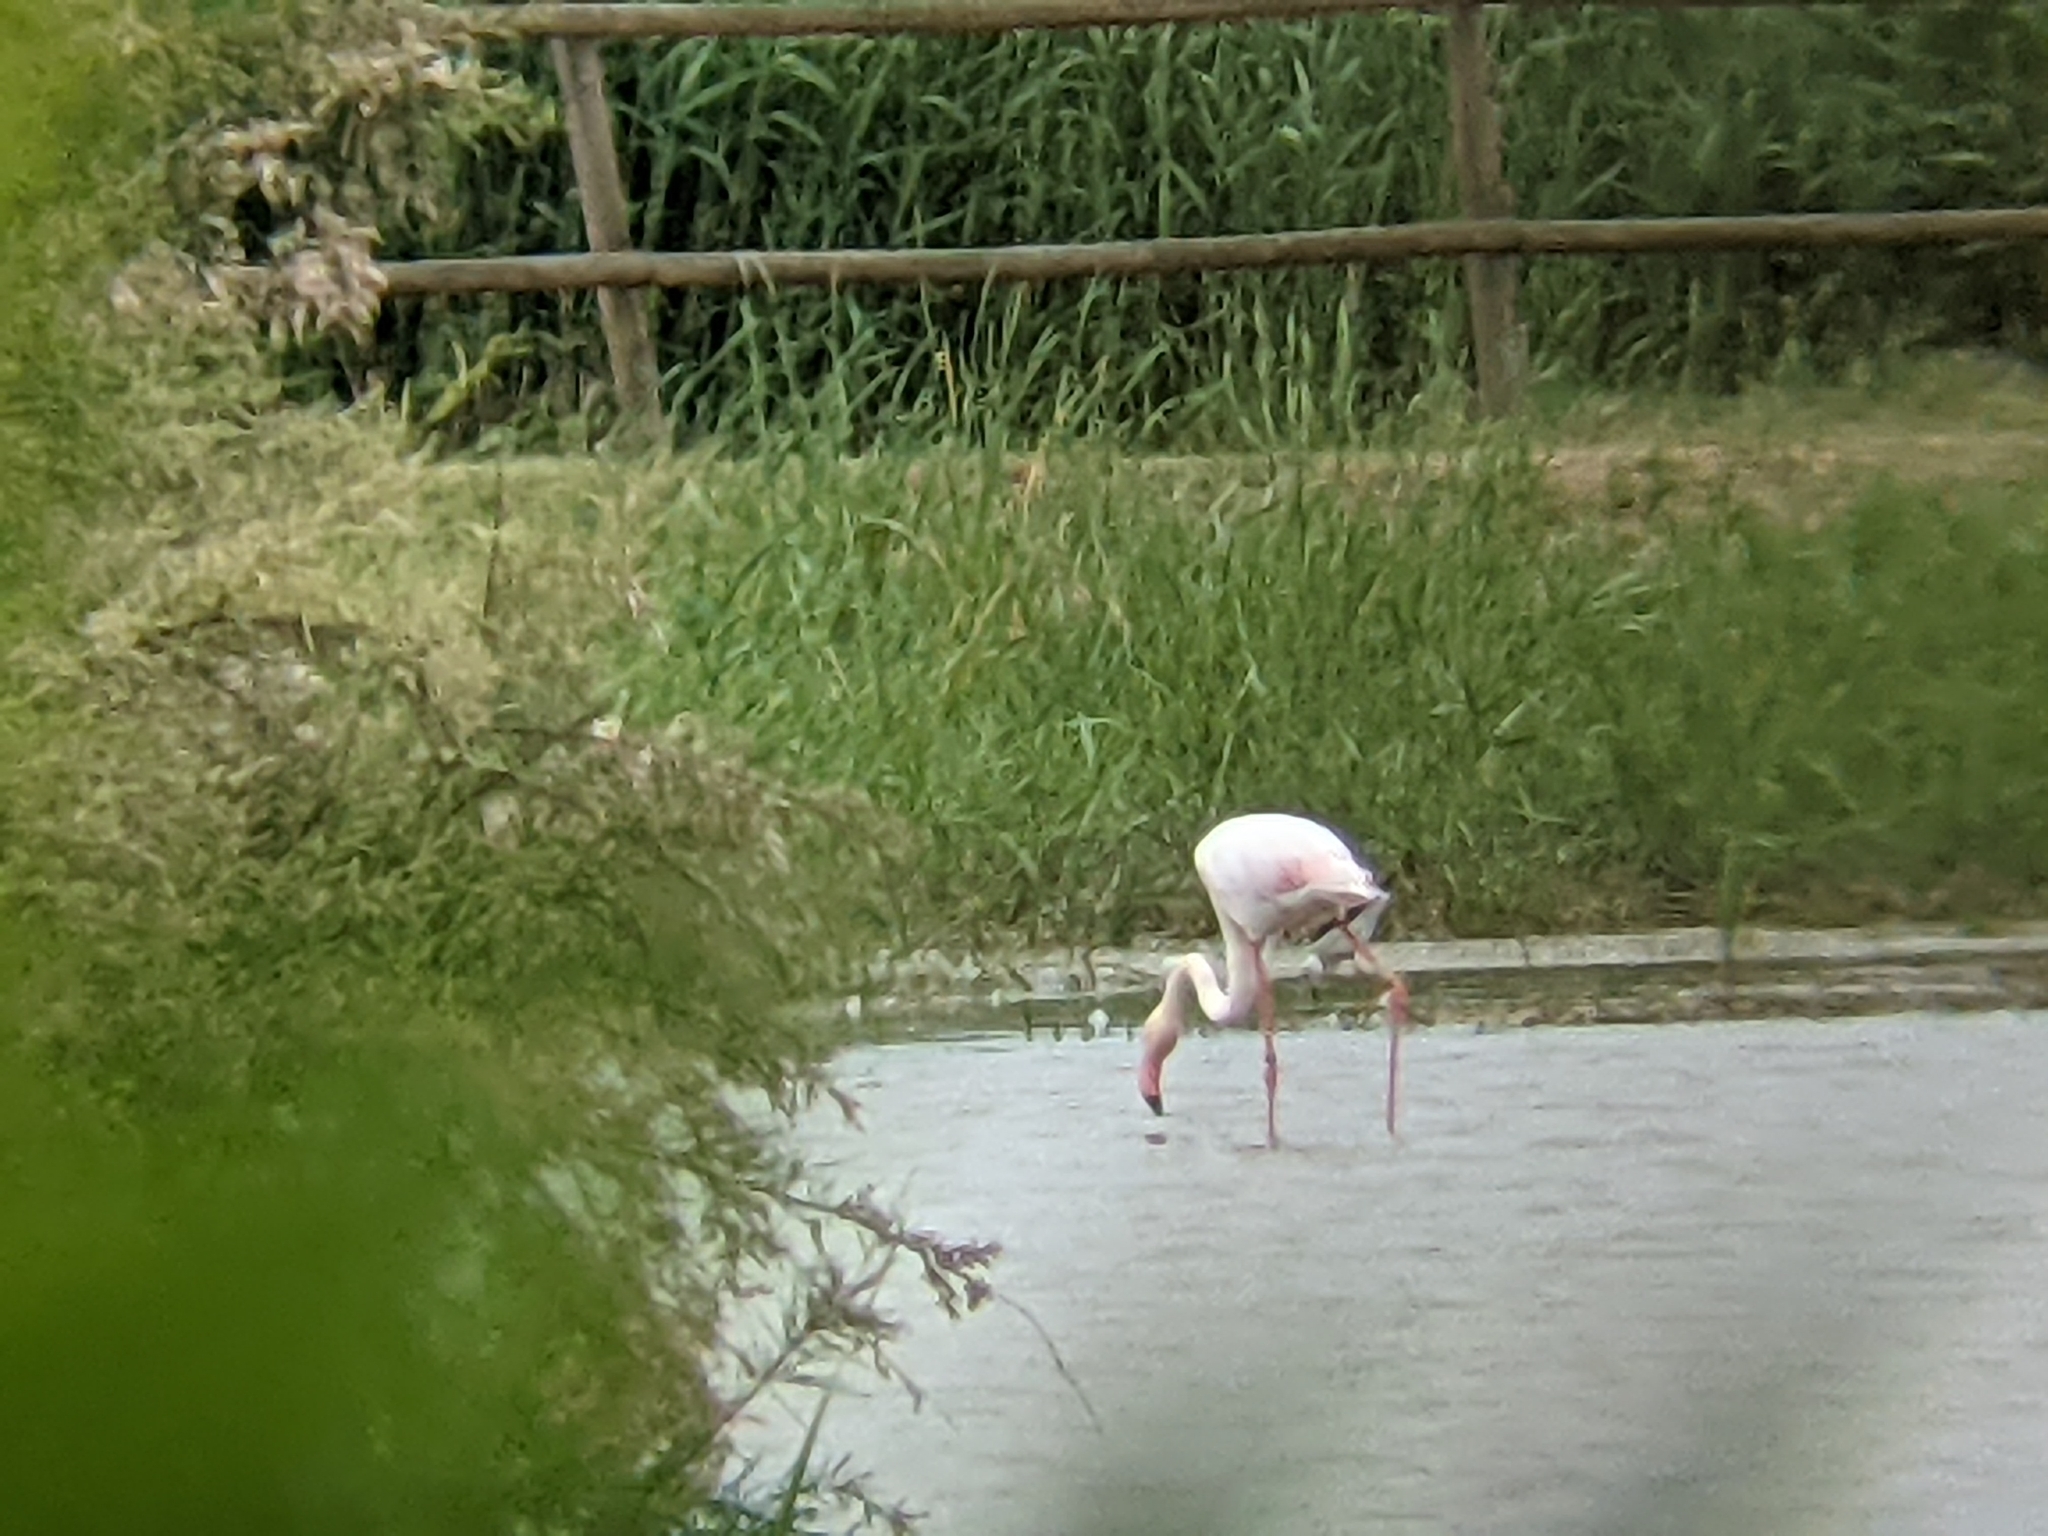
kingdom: Animalia
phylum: Chordata
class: Aves
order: Phoenicopteriformes
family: Phoenicopteridae
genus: Phoenicopterus
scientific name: Phoenicopterus roseus
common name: Greater flamingo
